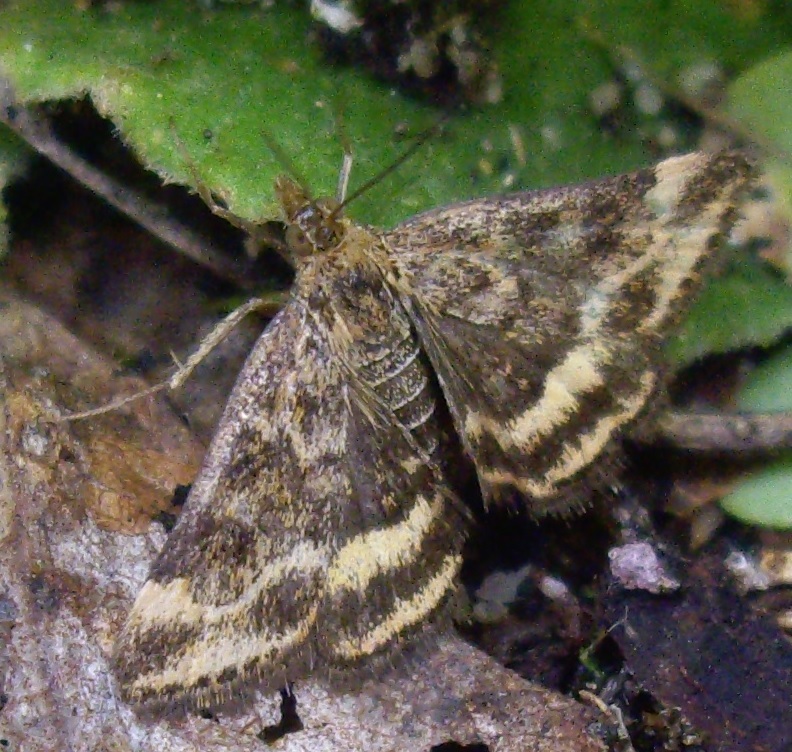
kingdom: Animalia
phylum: Arthropoda
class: Insecta
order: Lepidoptera
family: Crambidae
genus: Pyrausta
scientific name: Pyrausta despicata
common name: Straw-barred pearl
